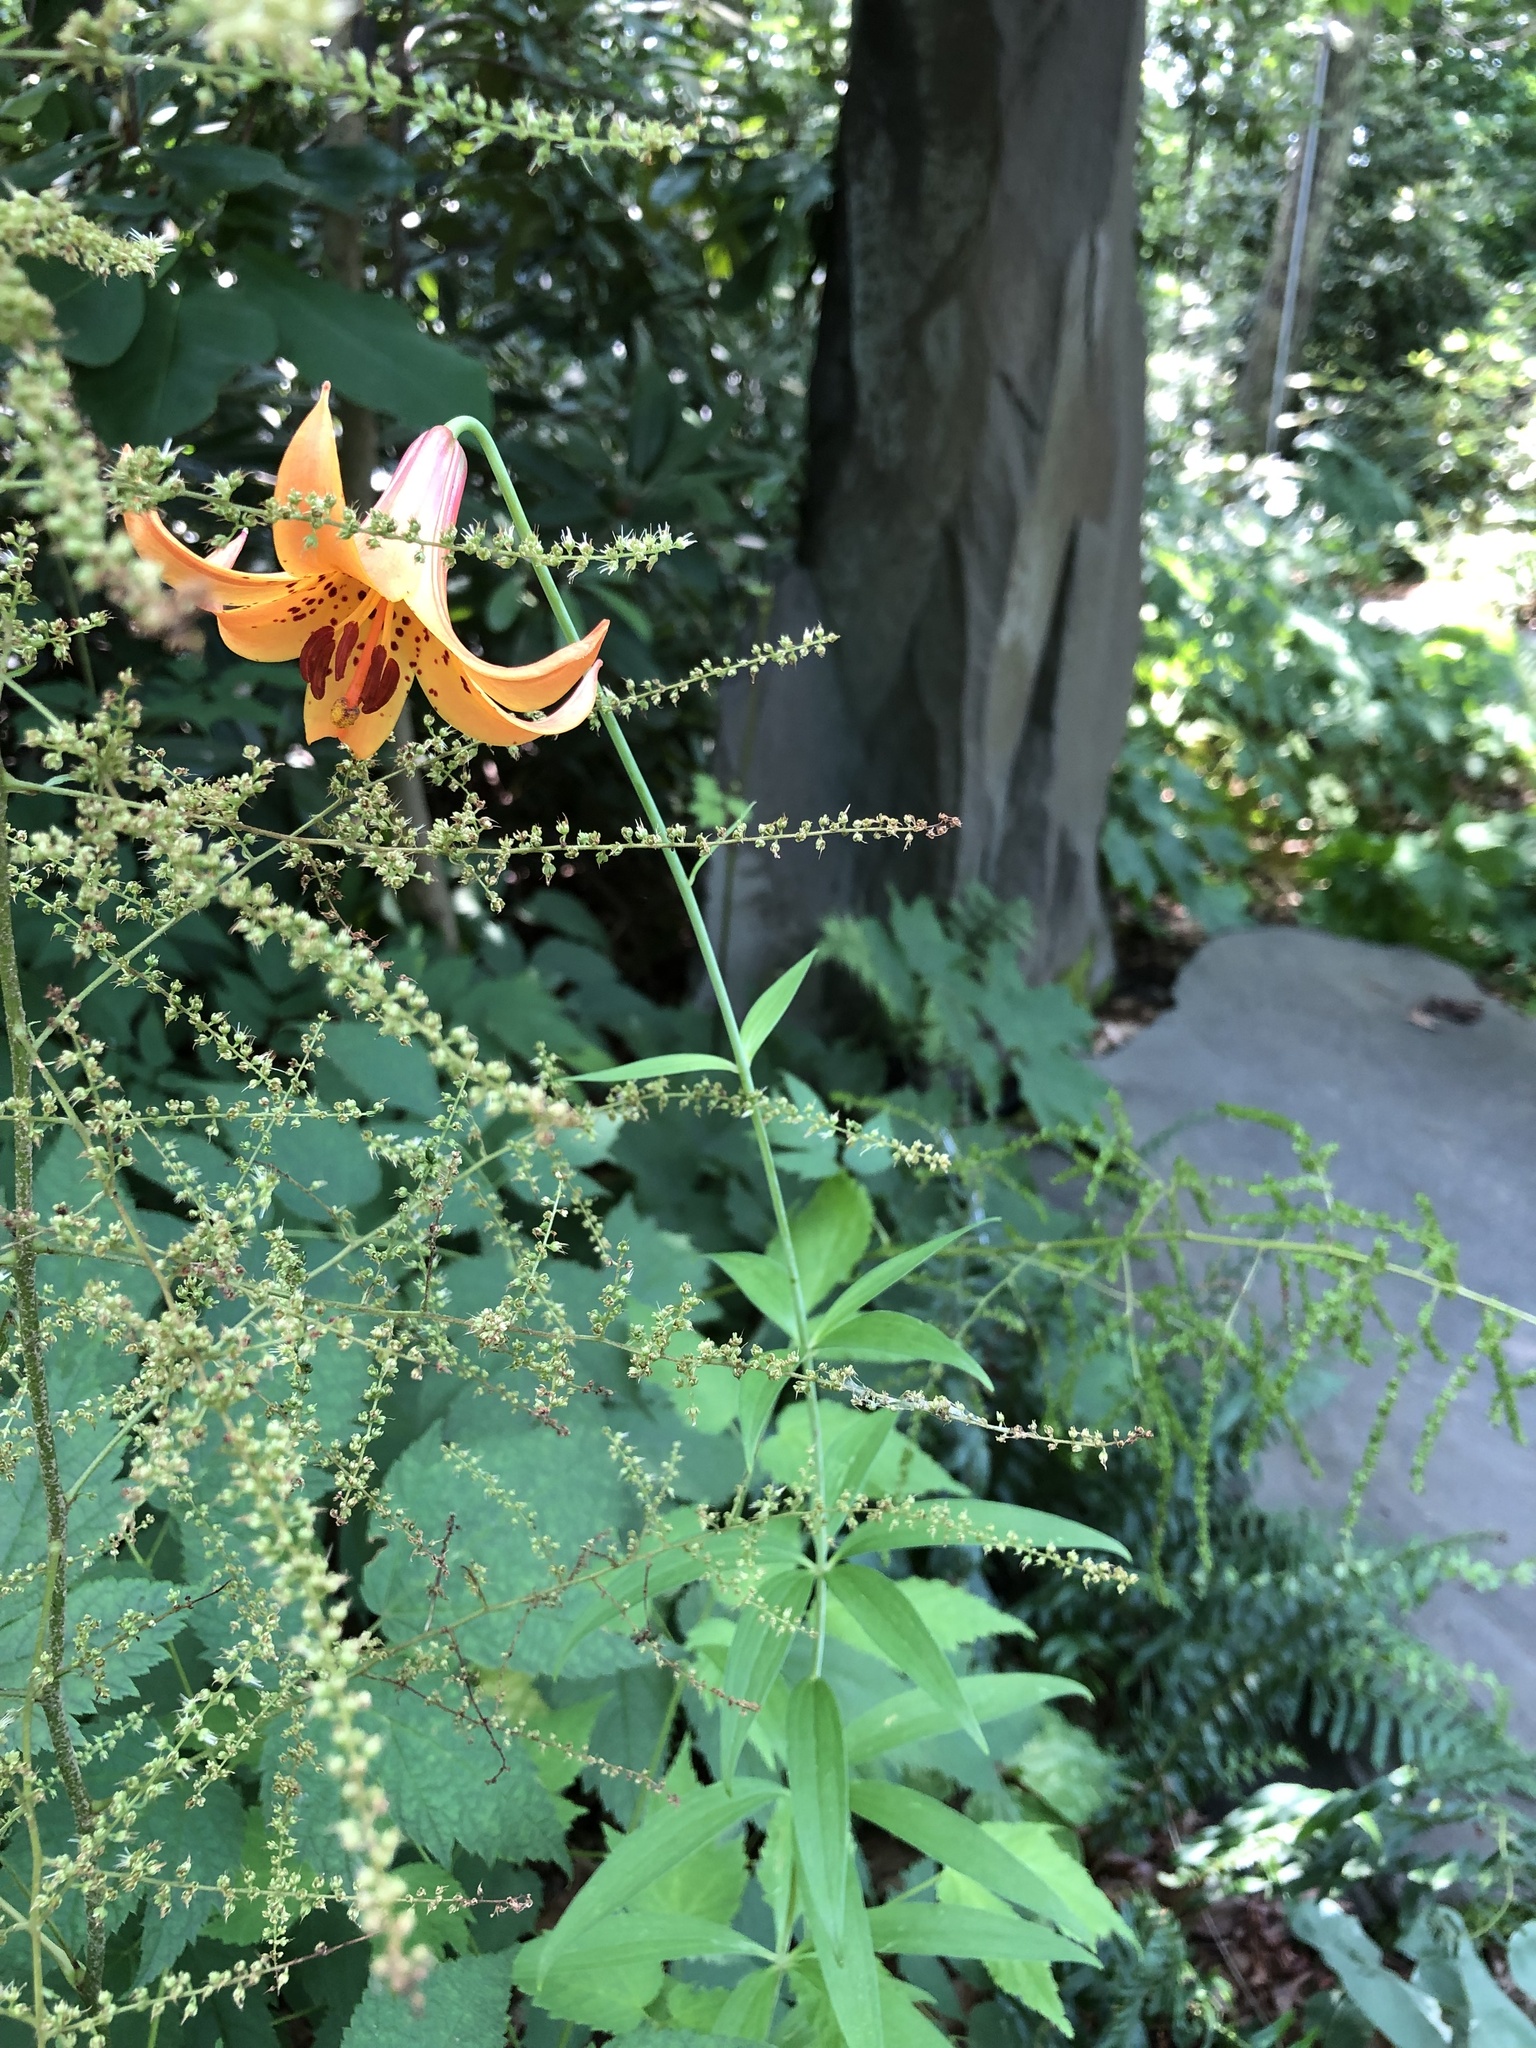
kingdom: Plantae
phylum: Tracheophyta
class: Liliopsida
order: Liliales
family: Liliaceae
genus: Lilium
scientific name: Lilium canadense
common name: Canada lily
